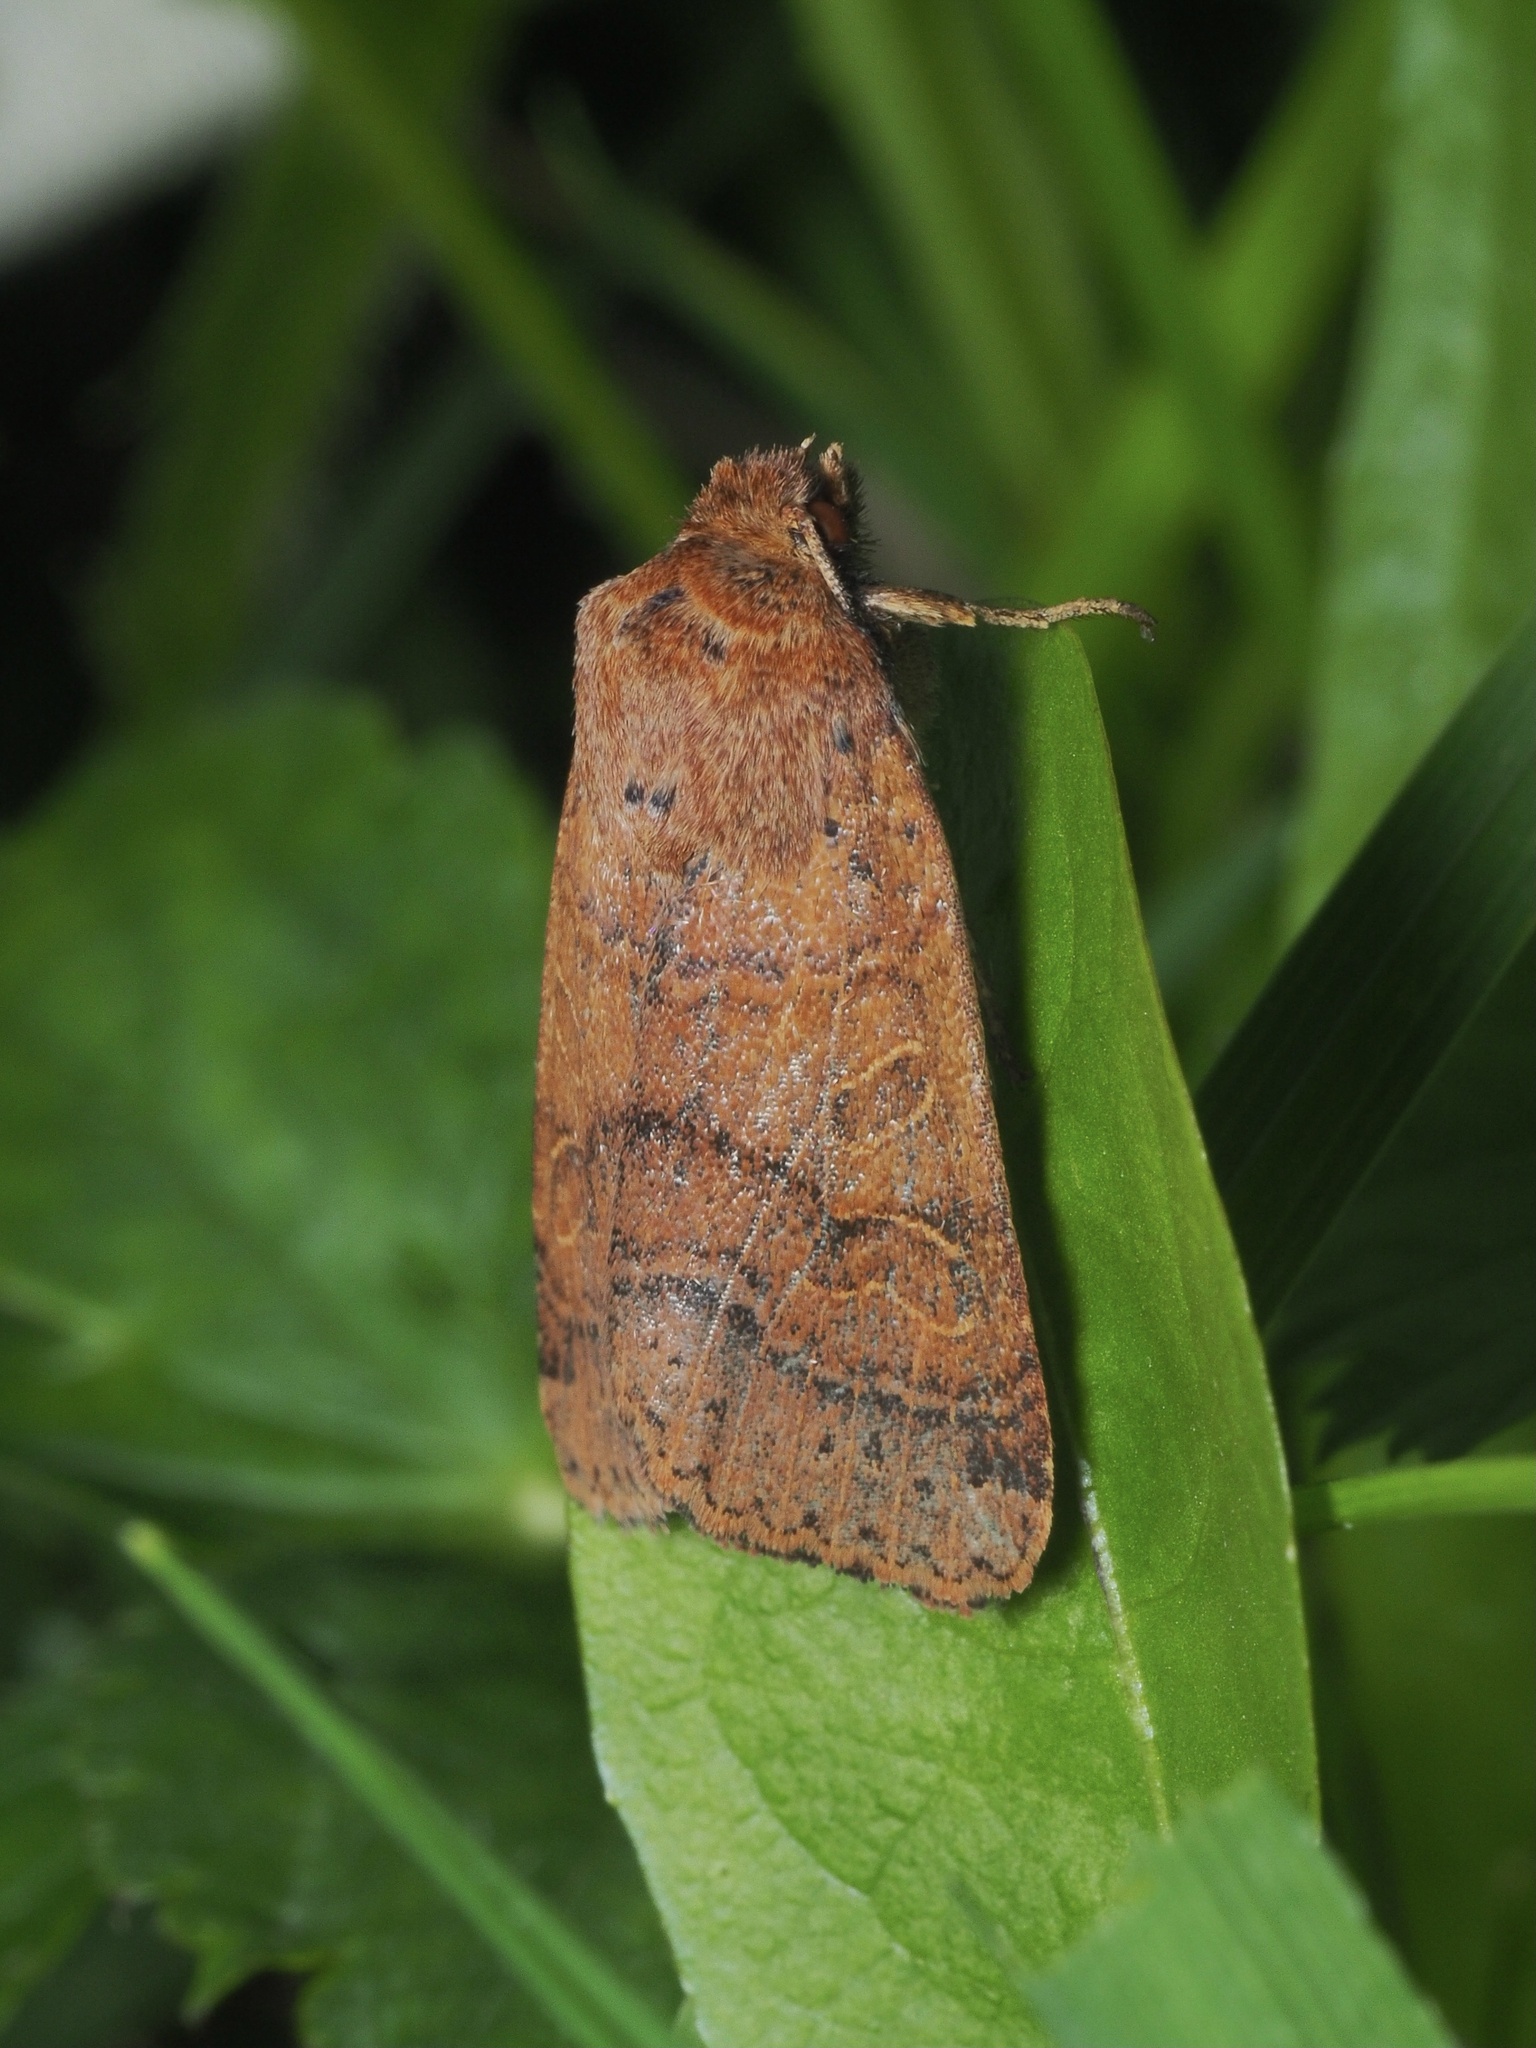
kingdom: Animalia
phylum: Arthropoda
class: Insecta
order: Lepidoptera
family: Noctuidae
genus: Agrochola
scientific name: Agrochola nitida
